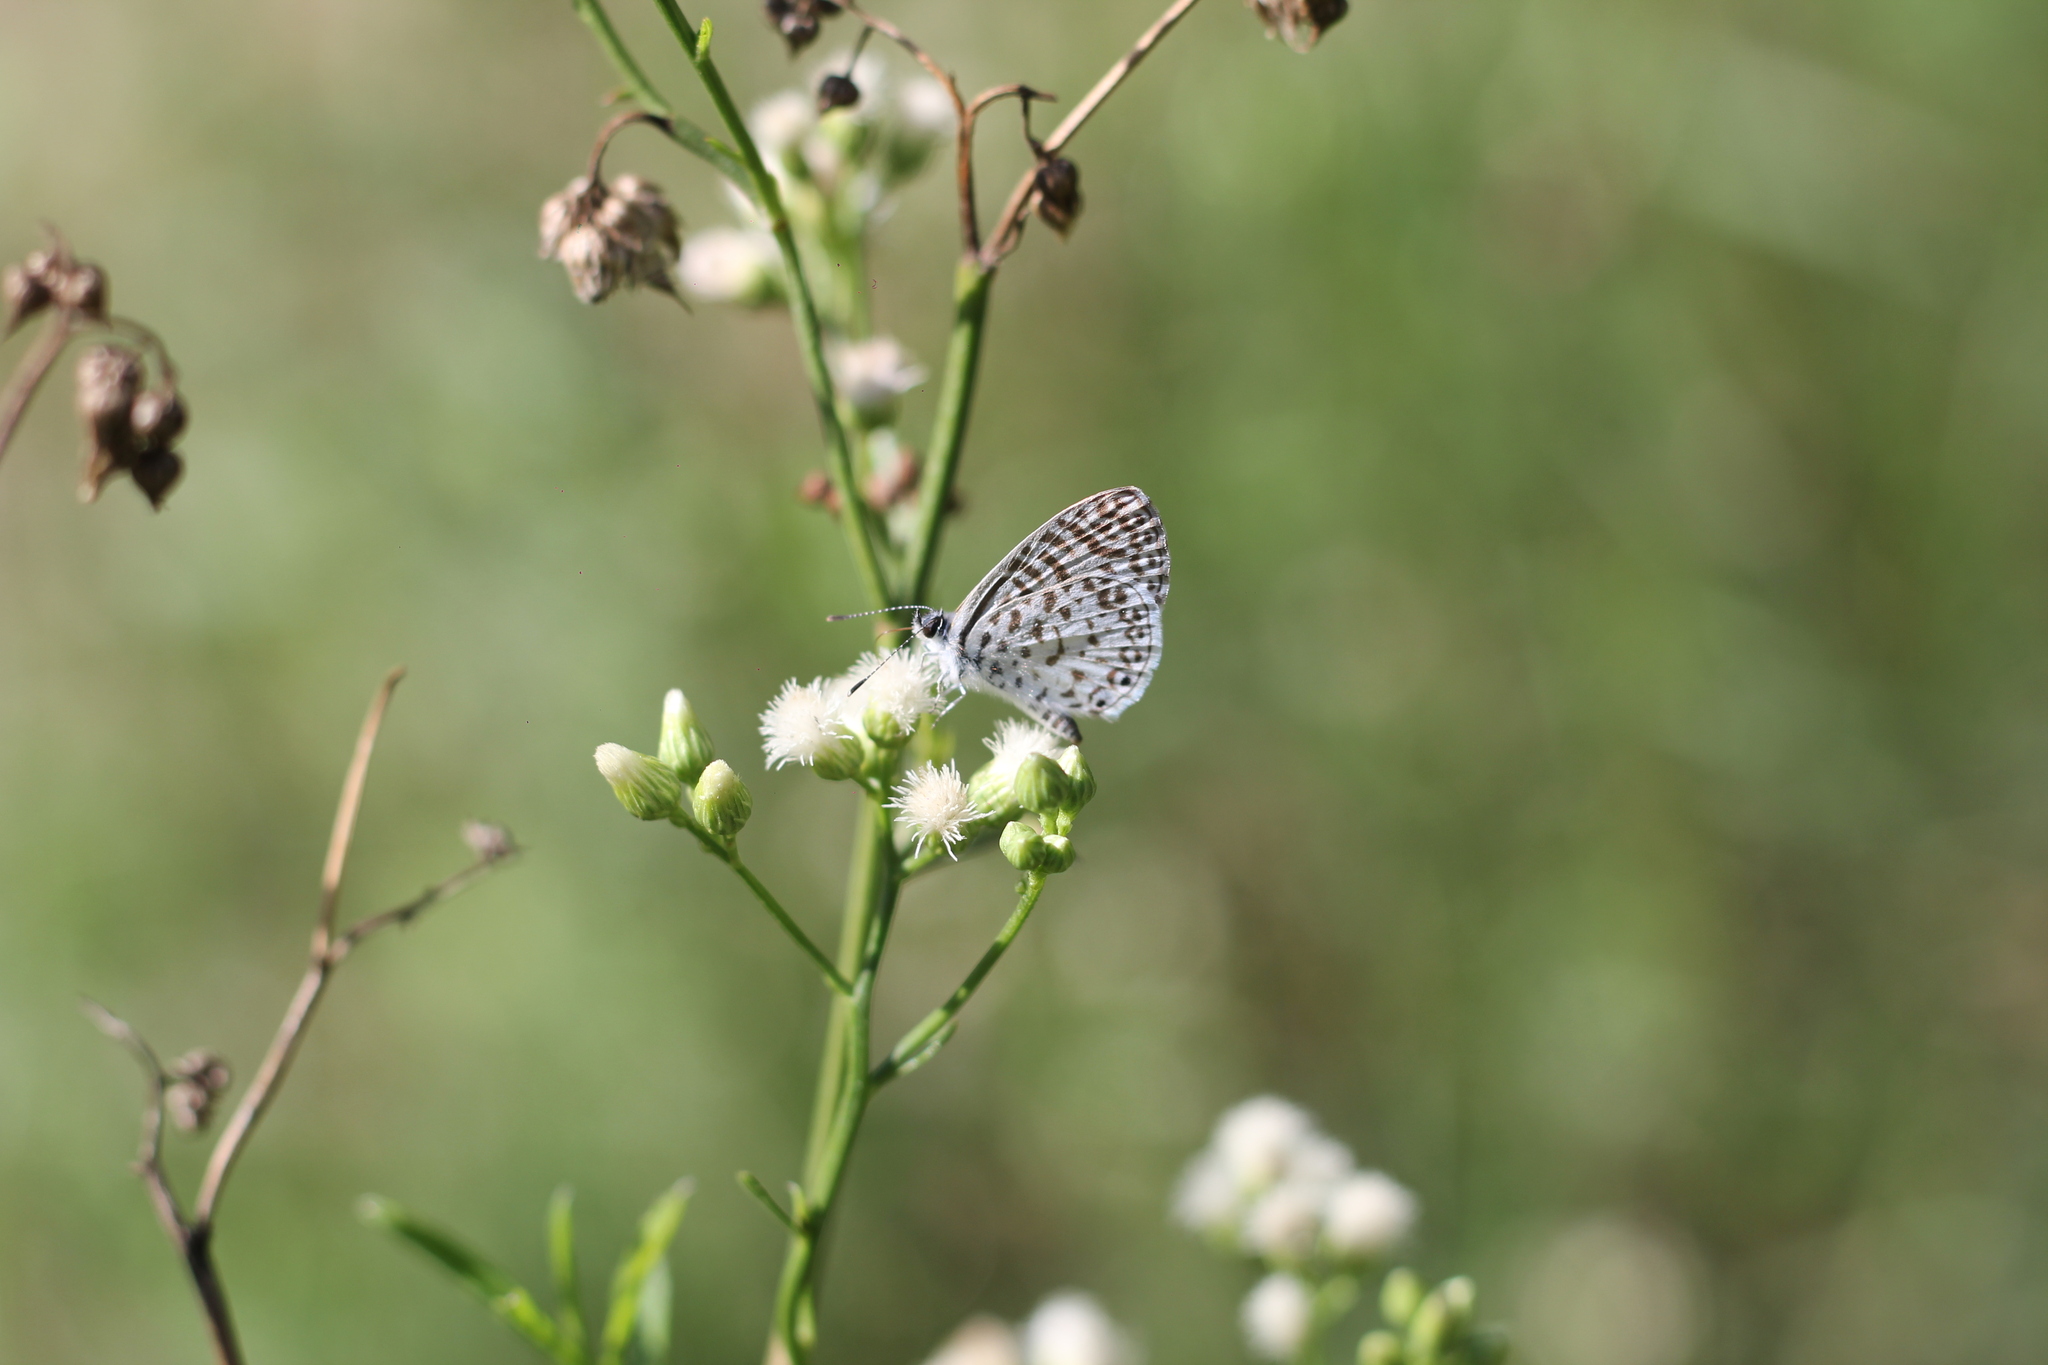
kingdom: Animalia
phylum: Arthropoda
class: Insecta
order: Lepidoptera
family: Lycaenidae
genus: Leptotes
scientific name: Leptotes cassius
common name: Cassius blue
